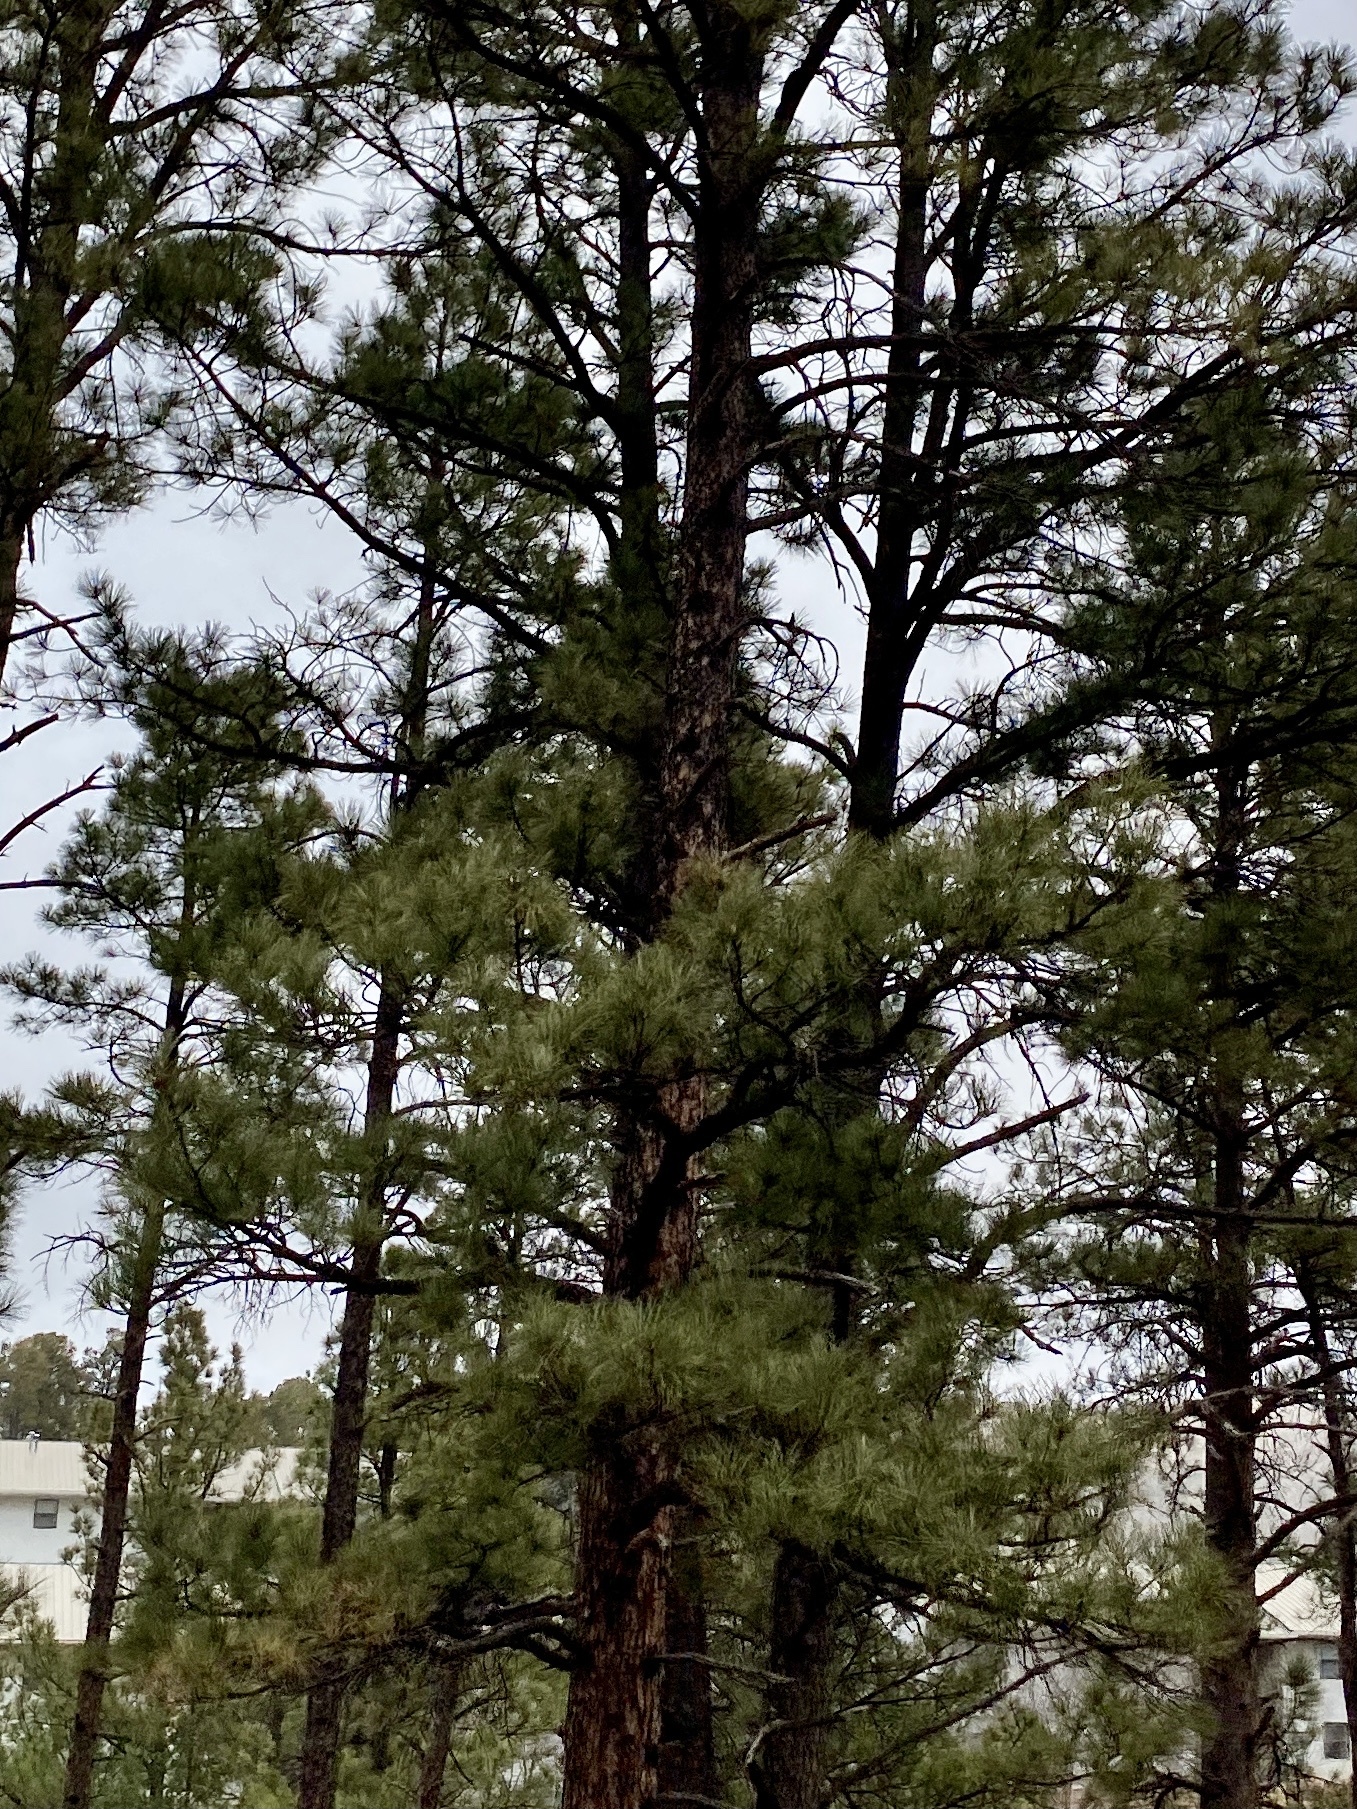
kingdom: Plantae
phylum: Tracheophyta
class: Pinopsida
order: Pinales
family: Pinaceae
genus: Pinus
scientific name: Pinus ponderosa
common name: Western yellow-pine
